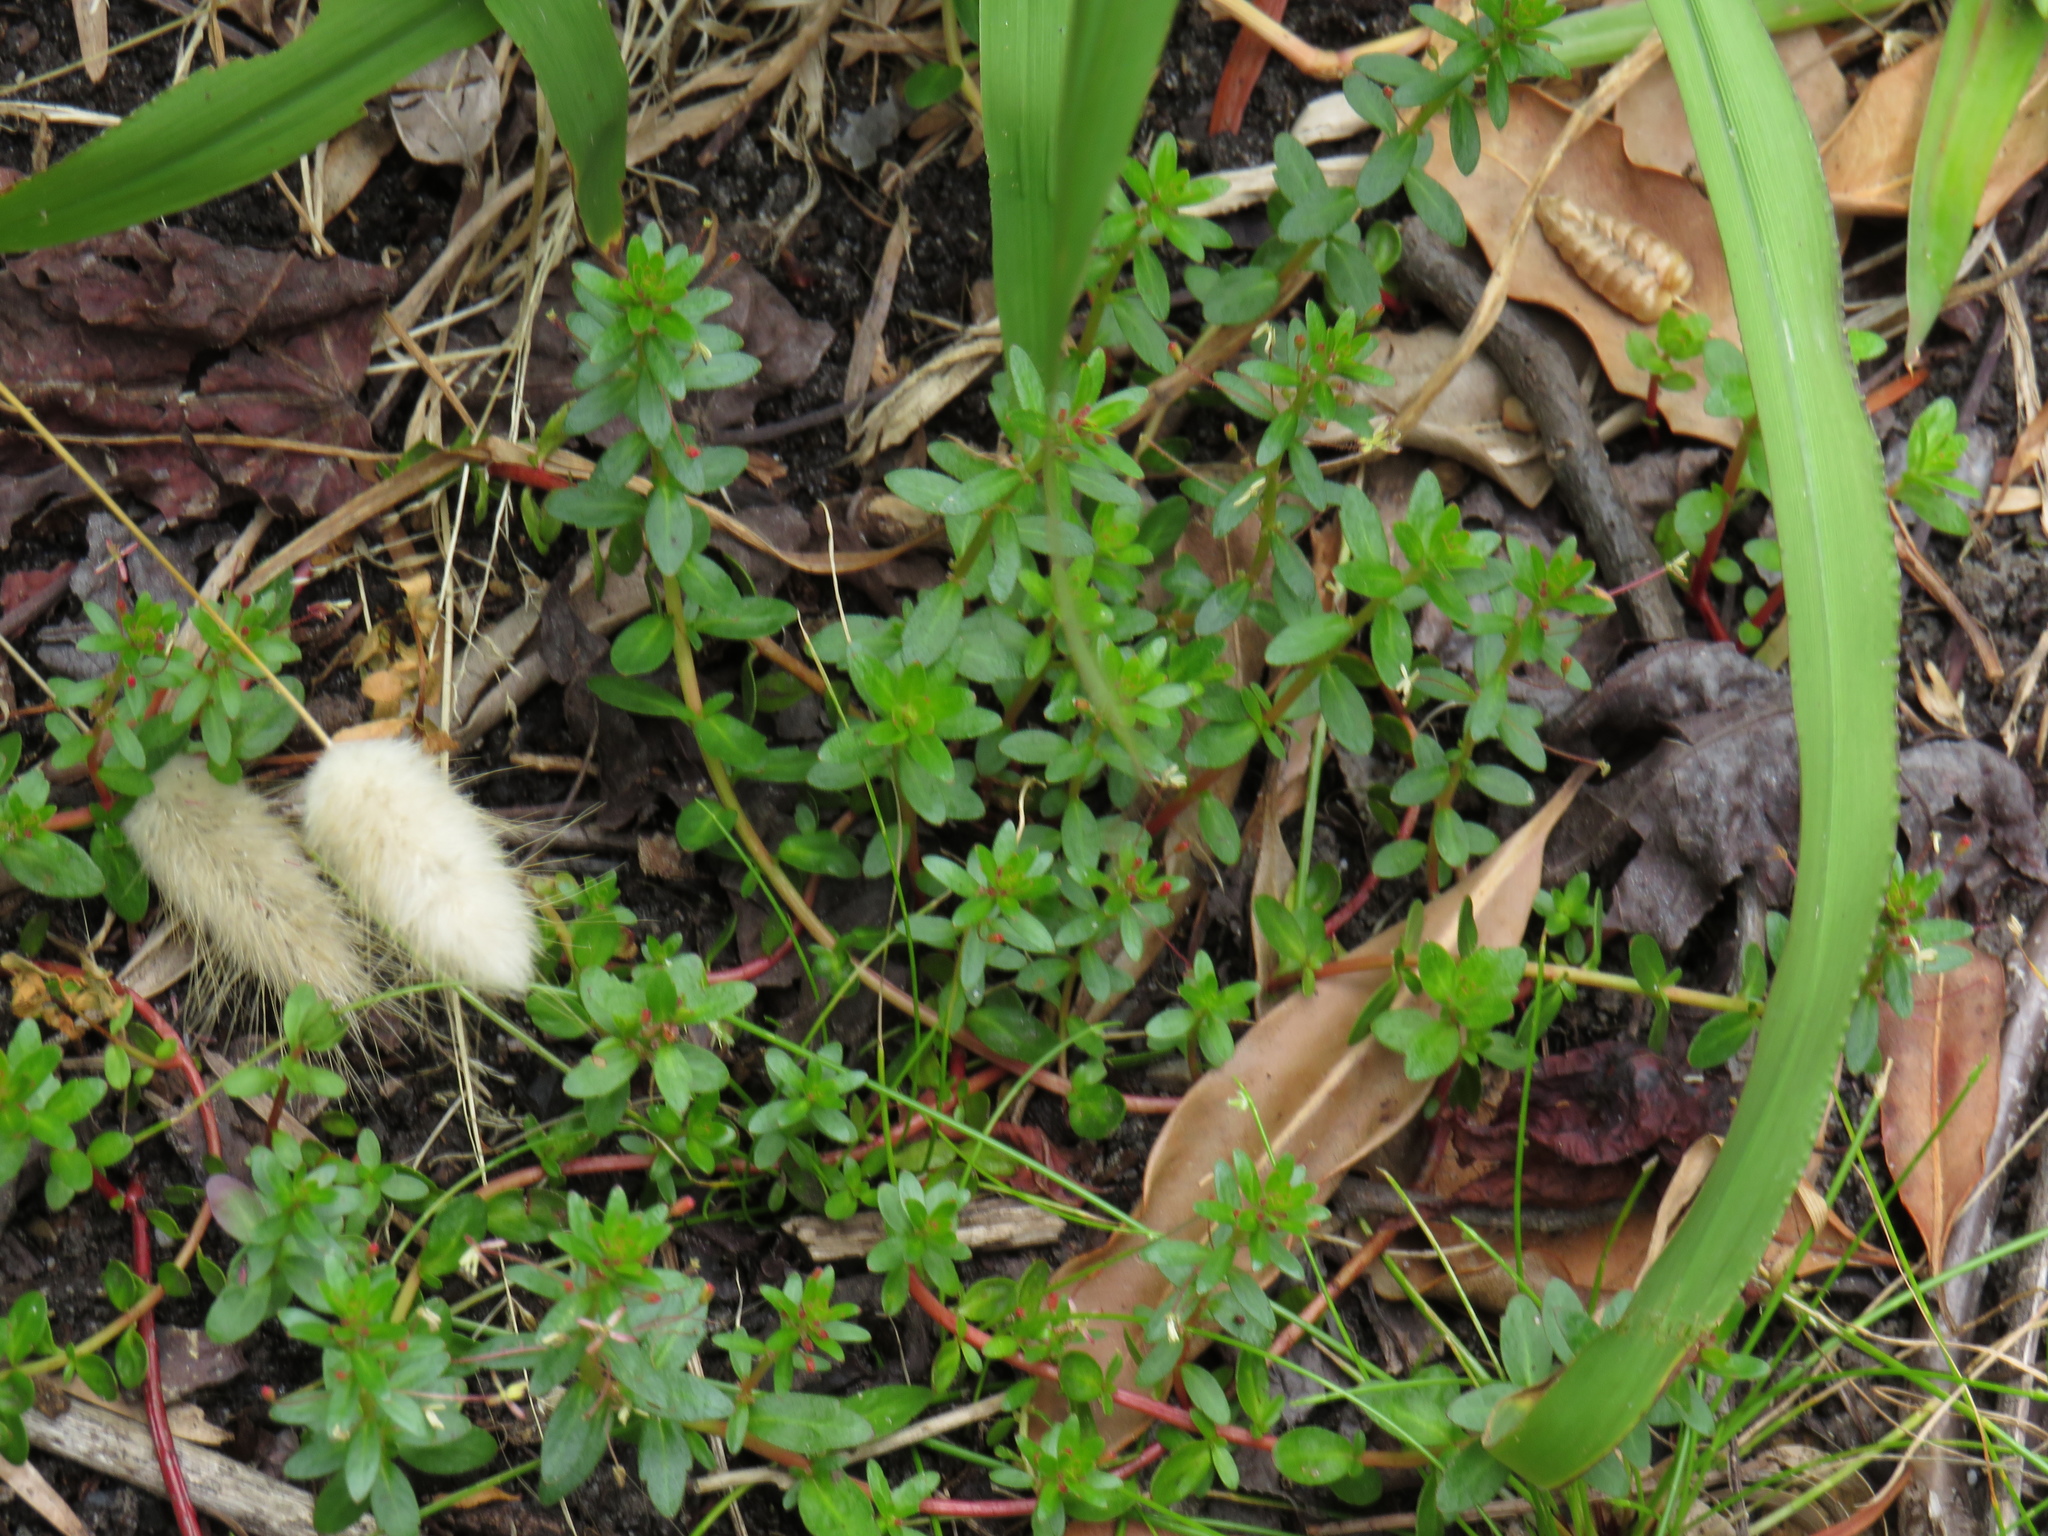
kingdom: Plantae
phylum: Tracheophyta
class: Magnoliopsida
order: Saxifragales
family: Haloragaceae
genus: Laurembergia
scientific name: Laurembergia repens
